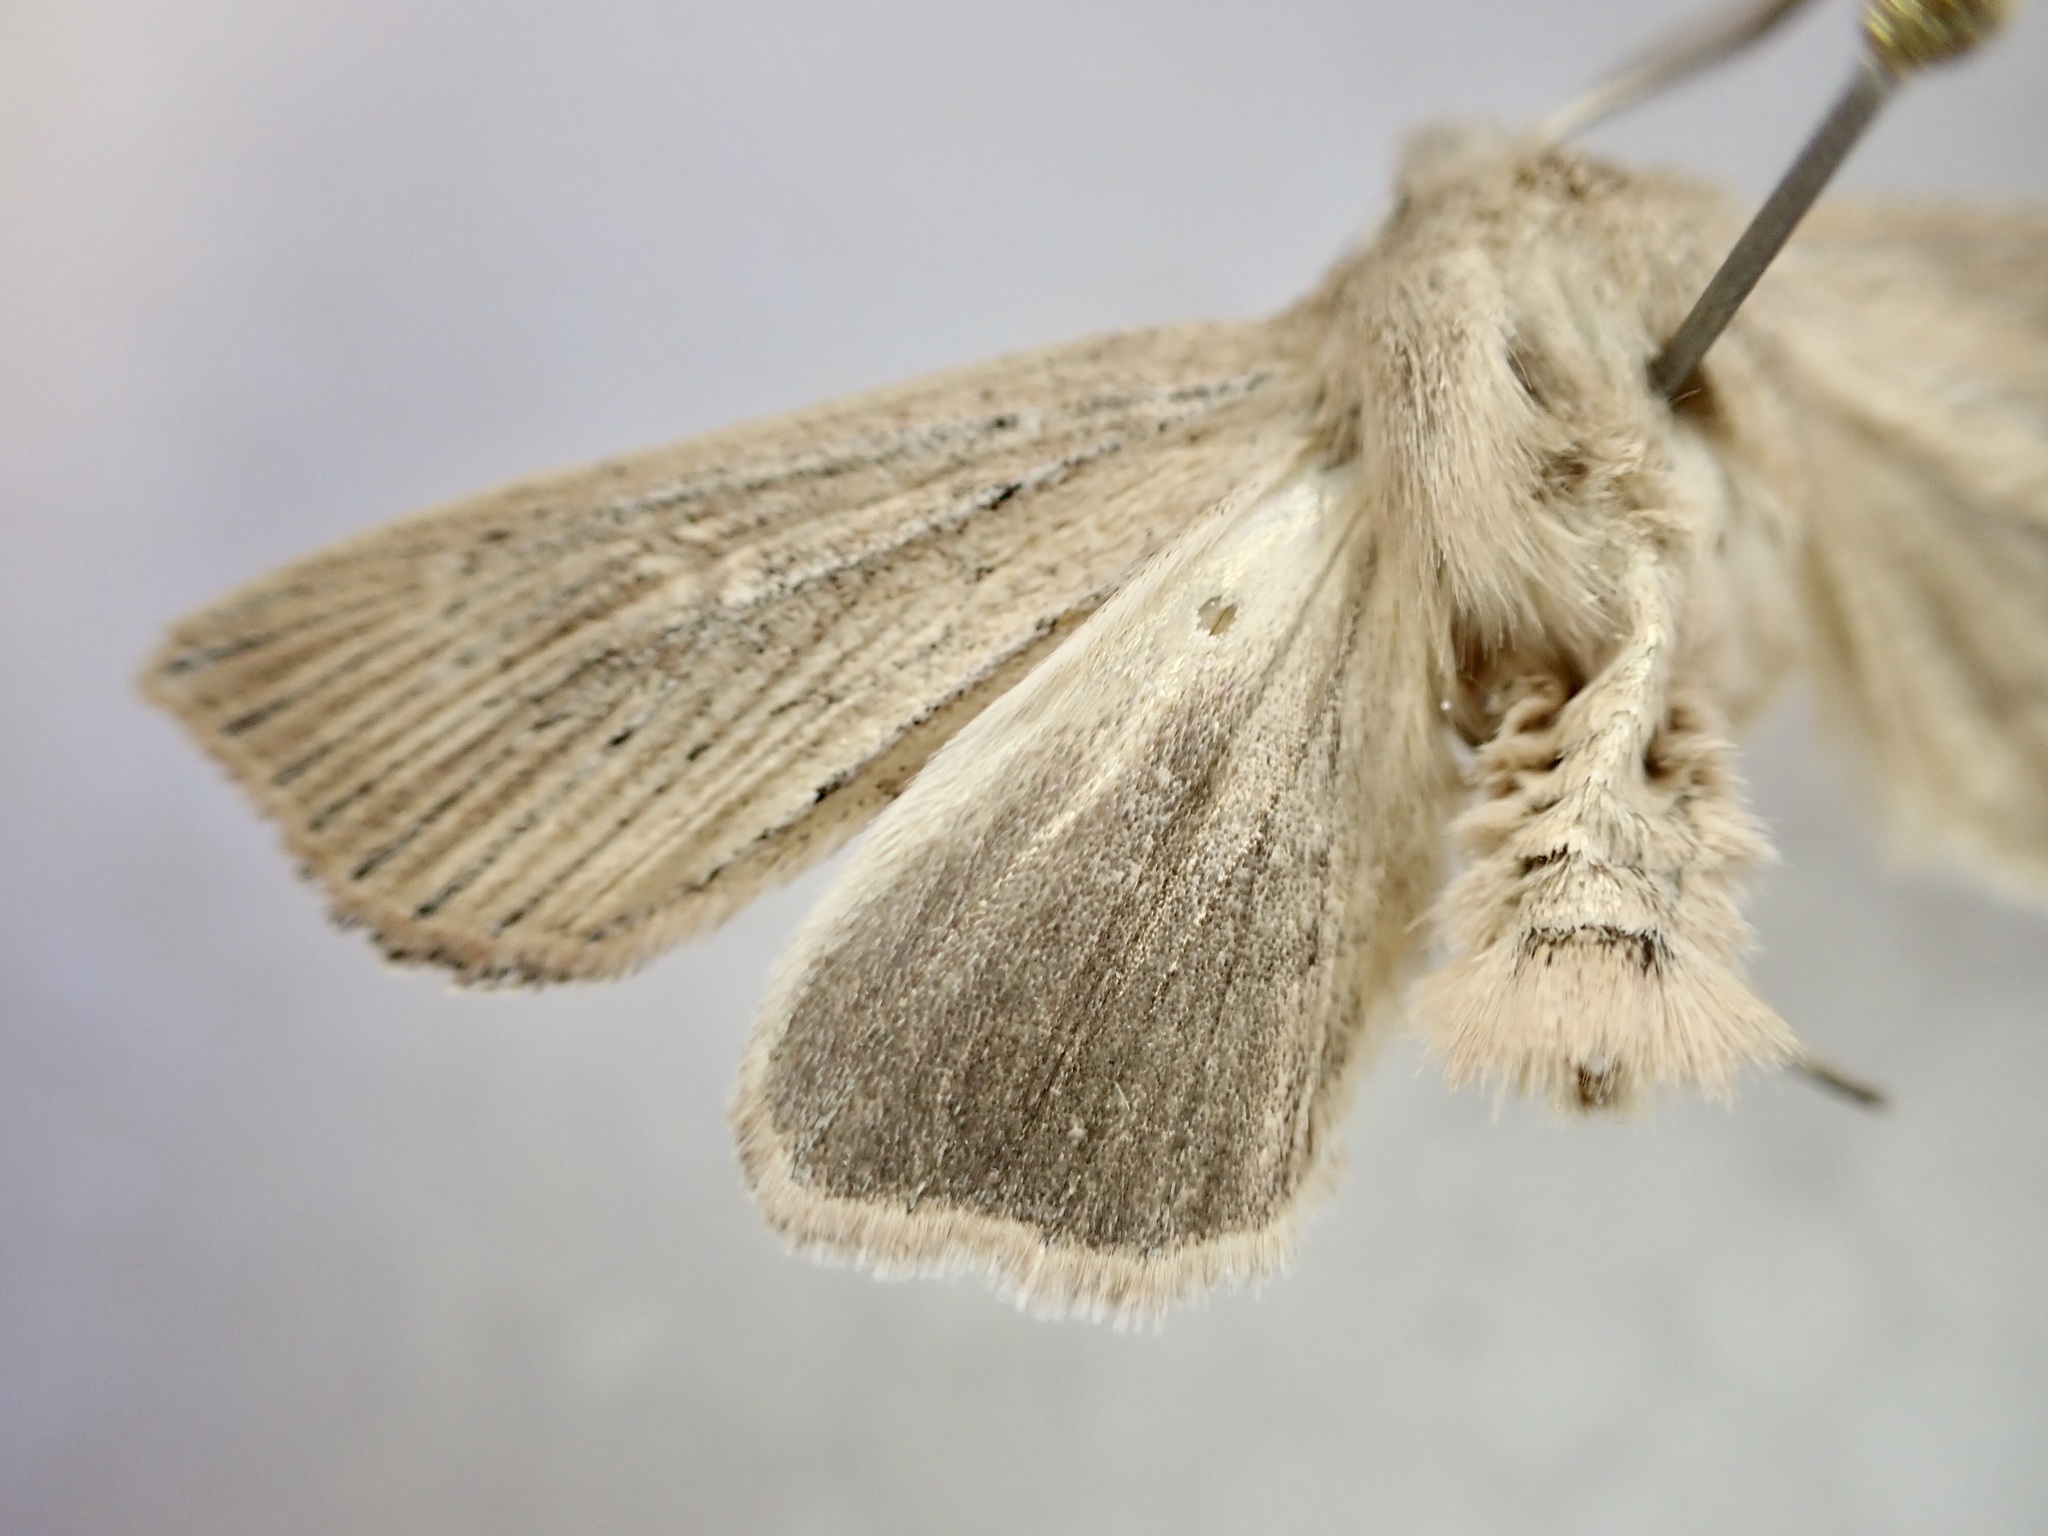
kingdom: Animalia
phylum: Arthropoda
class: Insecta
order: Lepidoptera
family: Noctuidae
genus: Ichneutica
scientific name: Ichneutica cornuta
